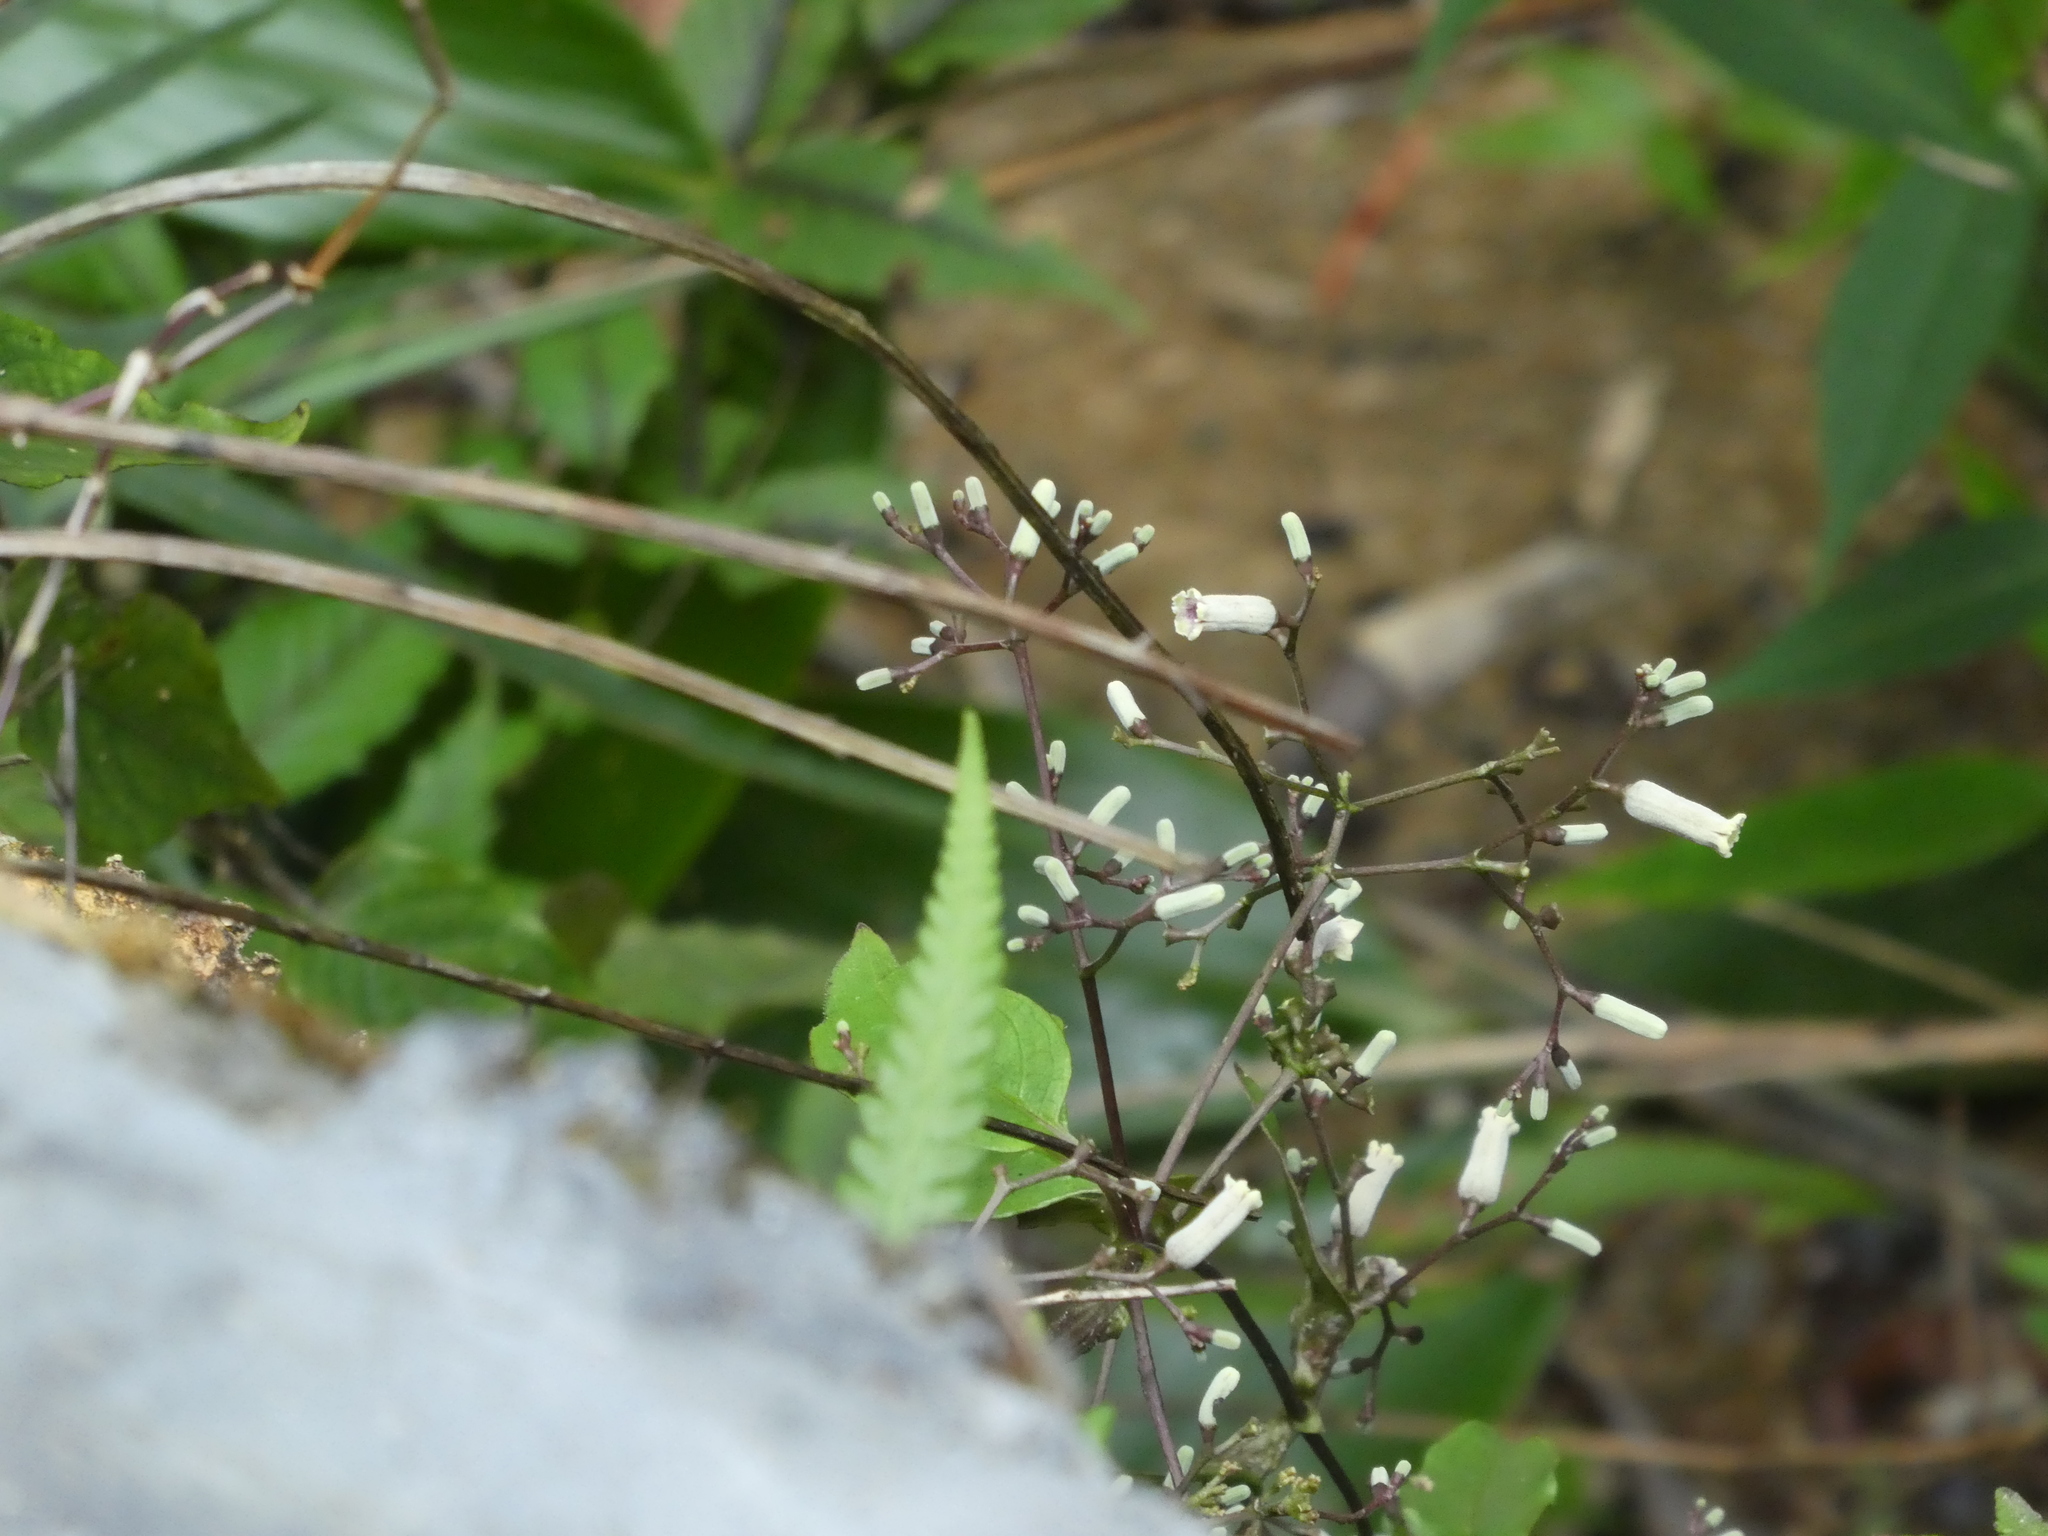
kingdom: Plantae
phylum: Tracheophyta
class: Magnoliopsida
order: Gentianales
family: Rubiaceae
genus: Paederia
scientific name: Paederia foetida
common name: Stinkvine
